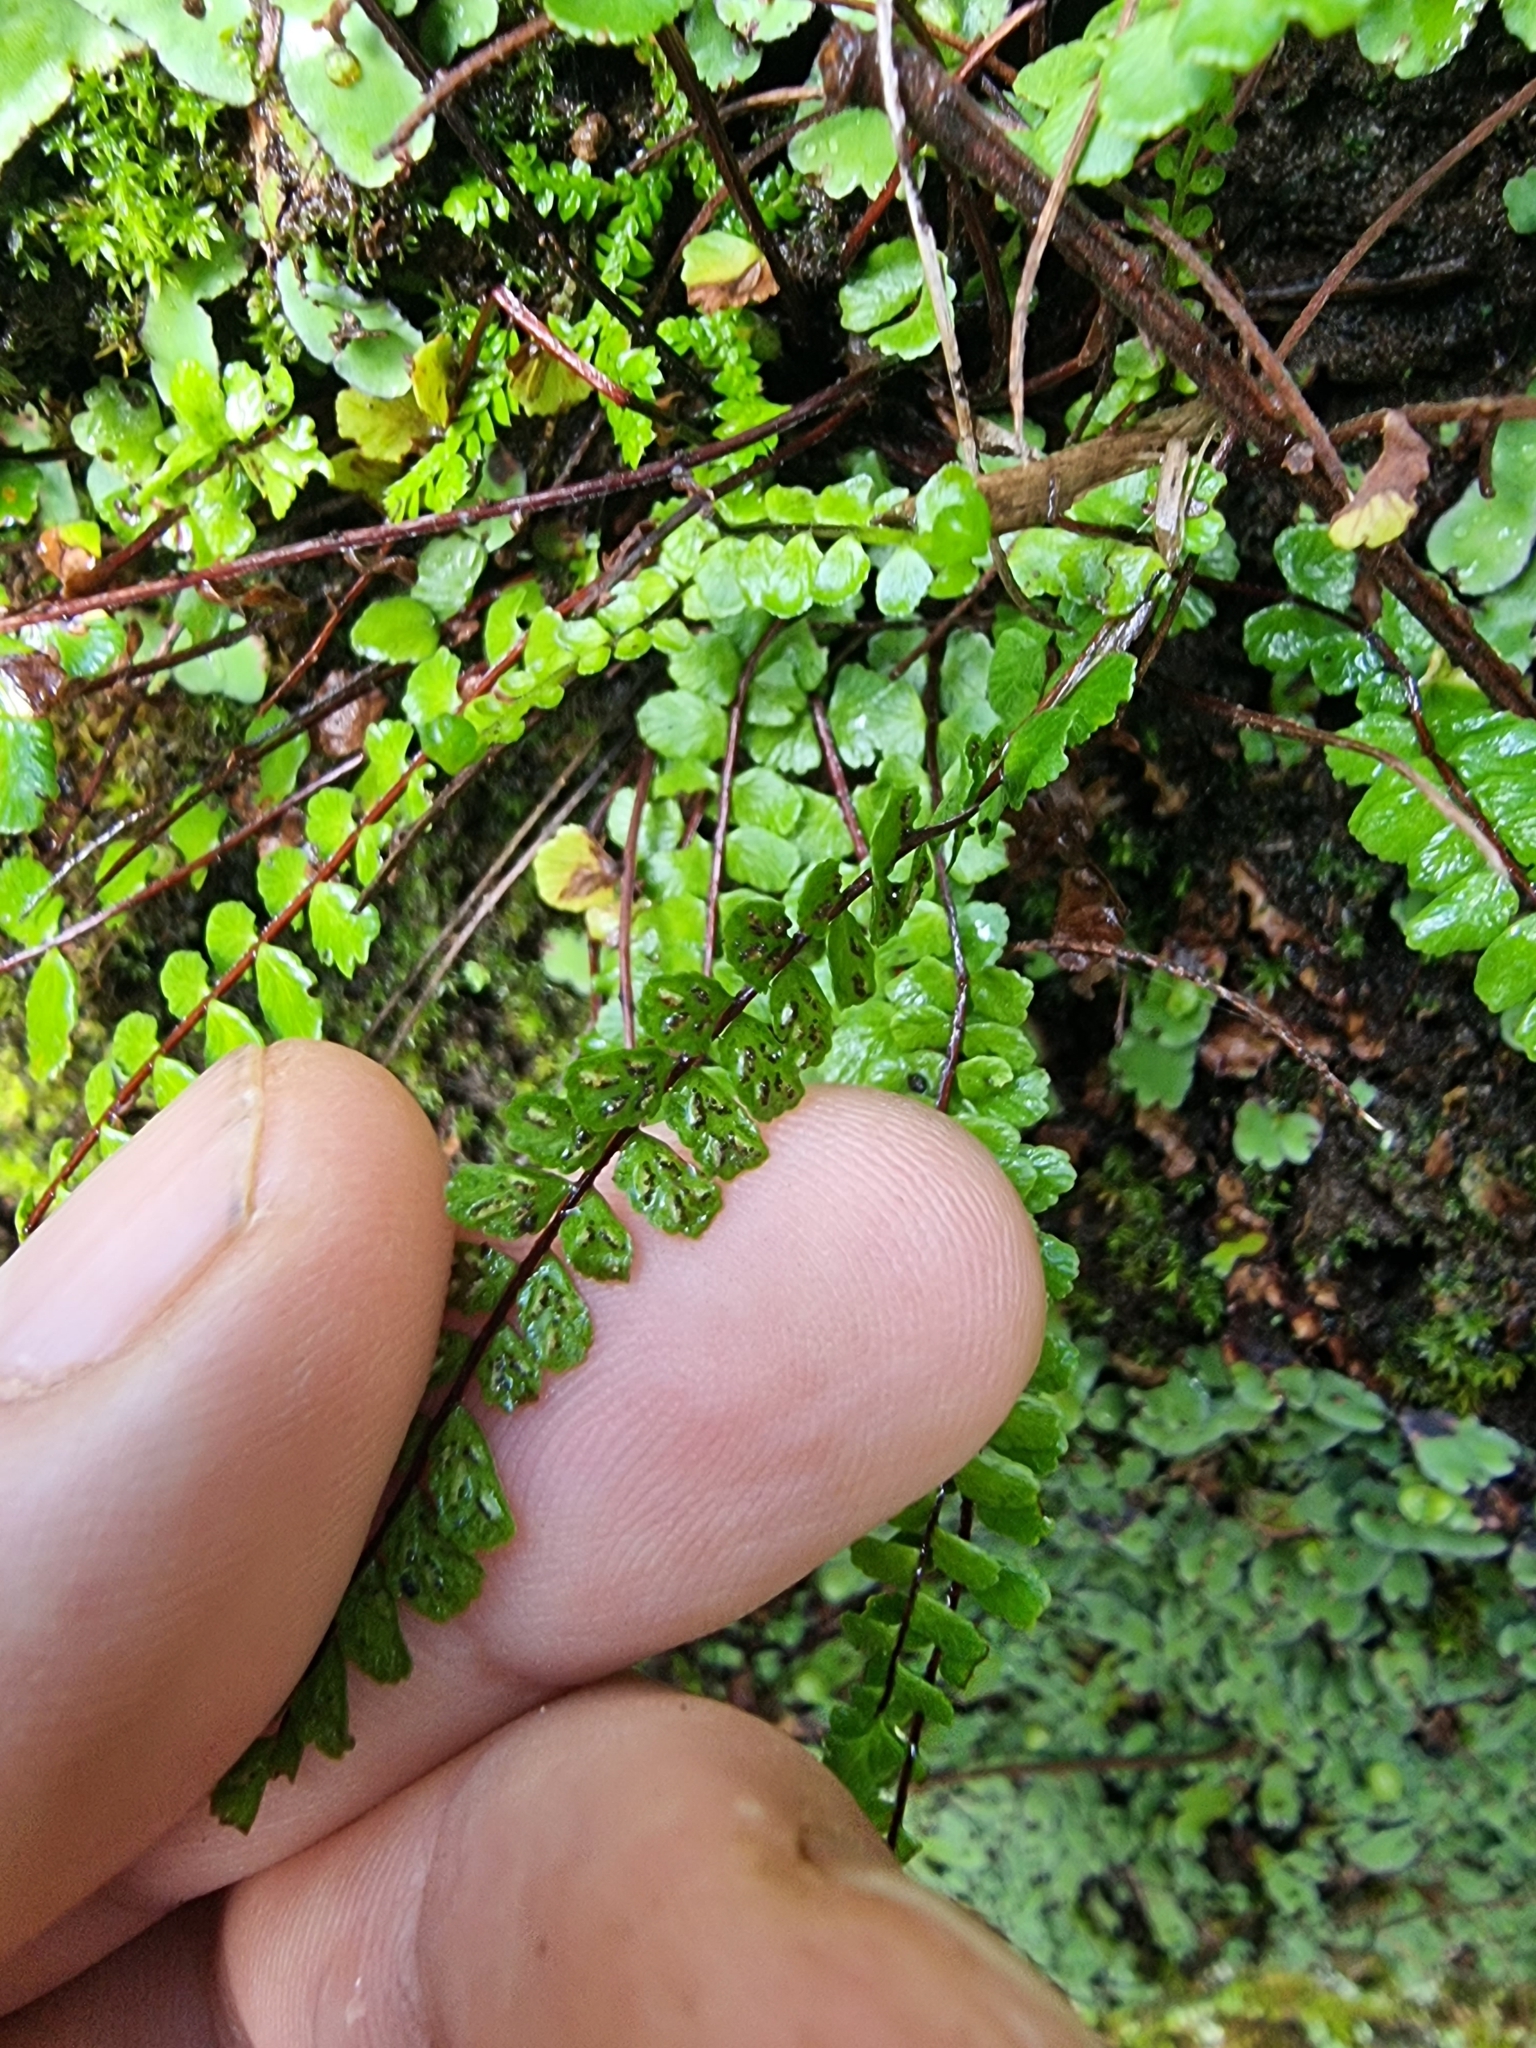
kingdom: Plantae
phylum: Tracheophyta
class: Polypodiopsida
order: Polypodiales
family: Aspleniaceae
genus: Asplenium
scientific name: Asplenium trichomanes
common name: Maidenhair spleenwort
